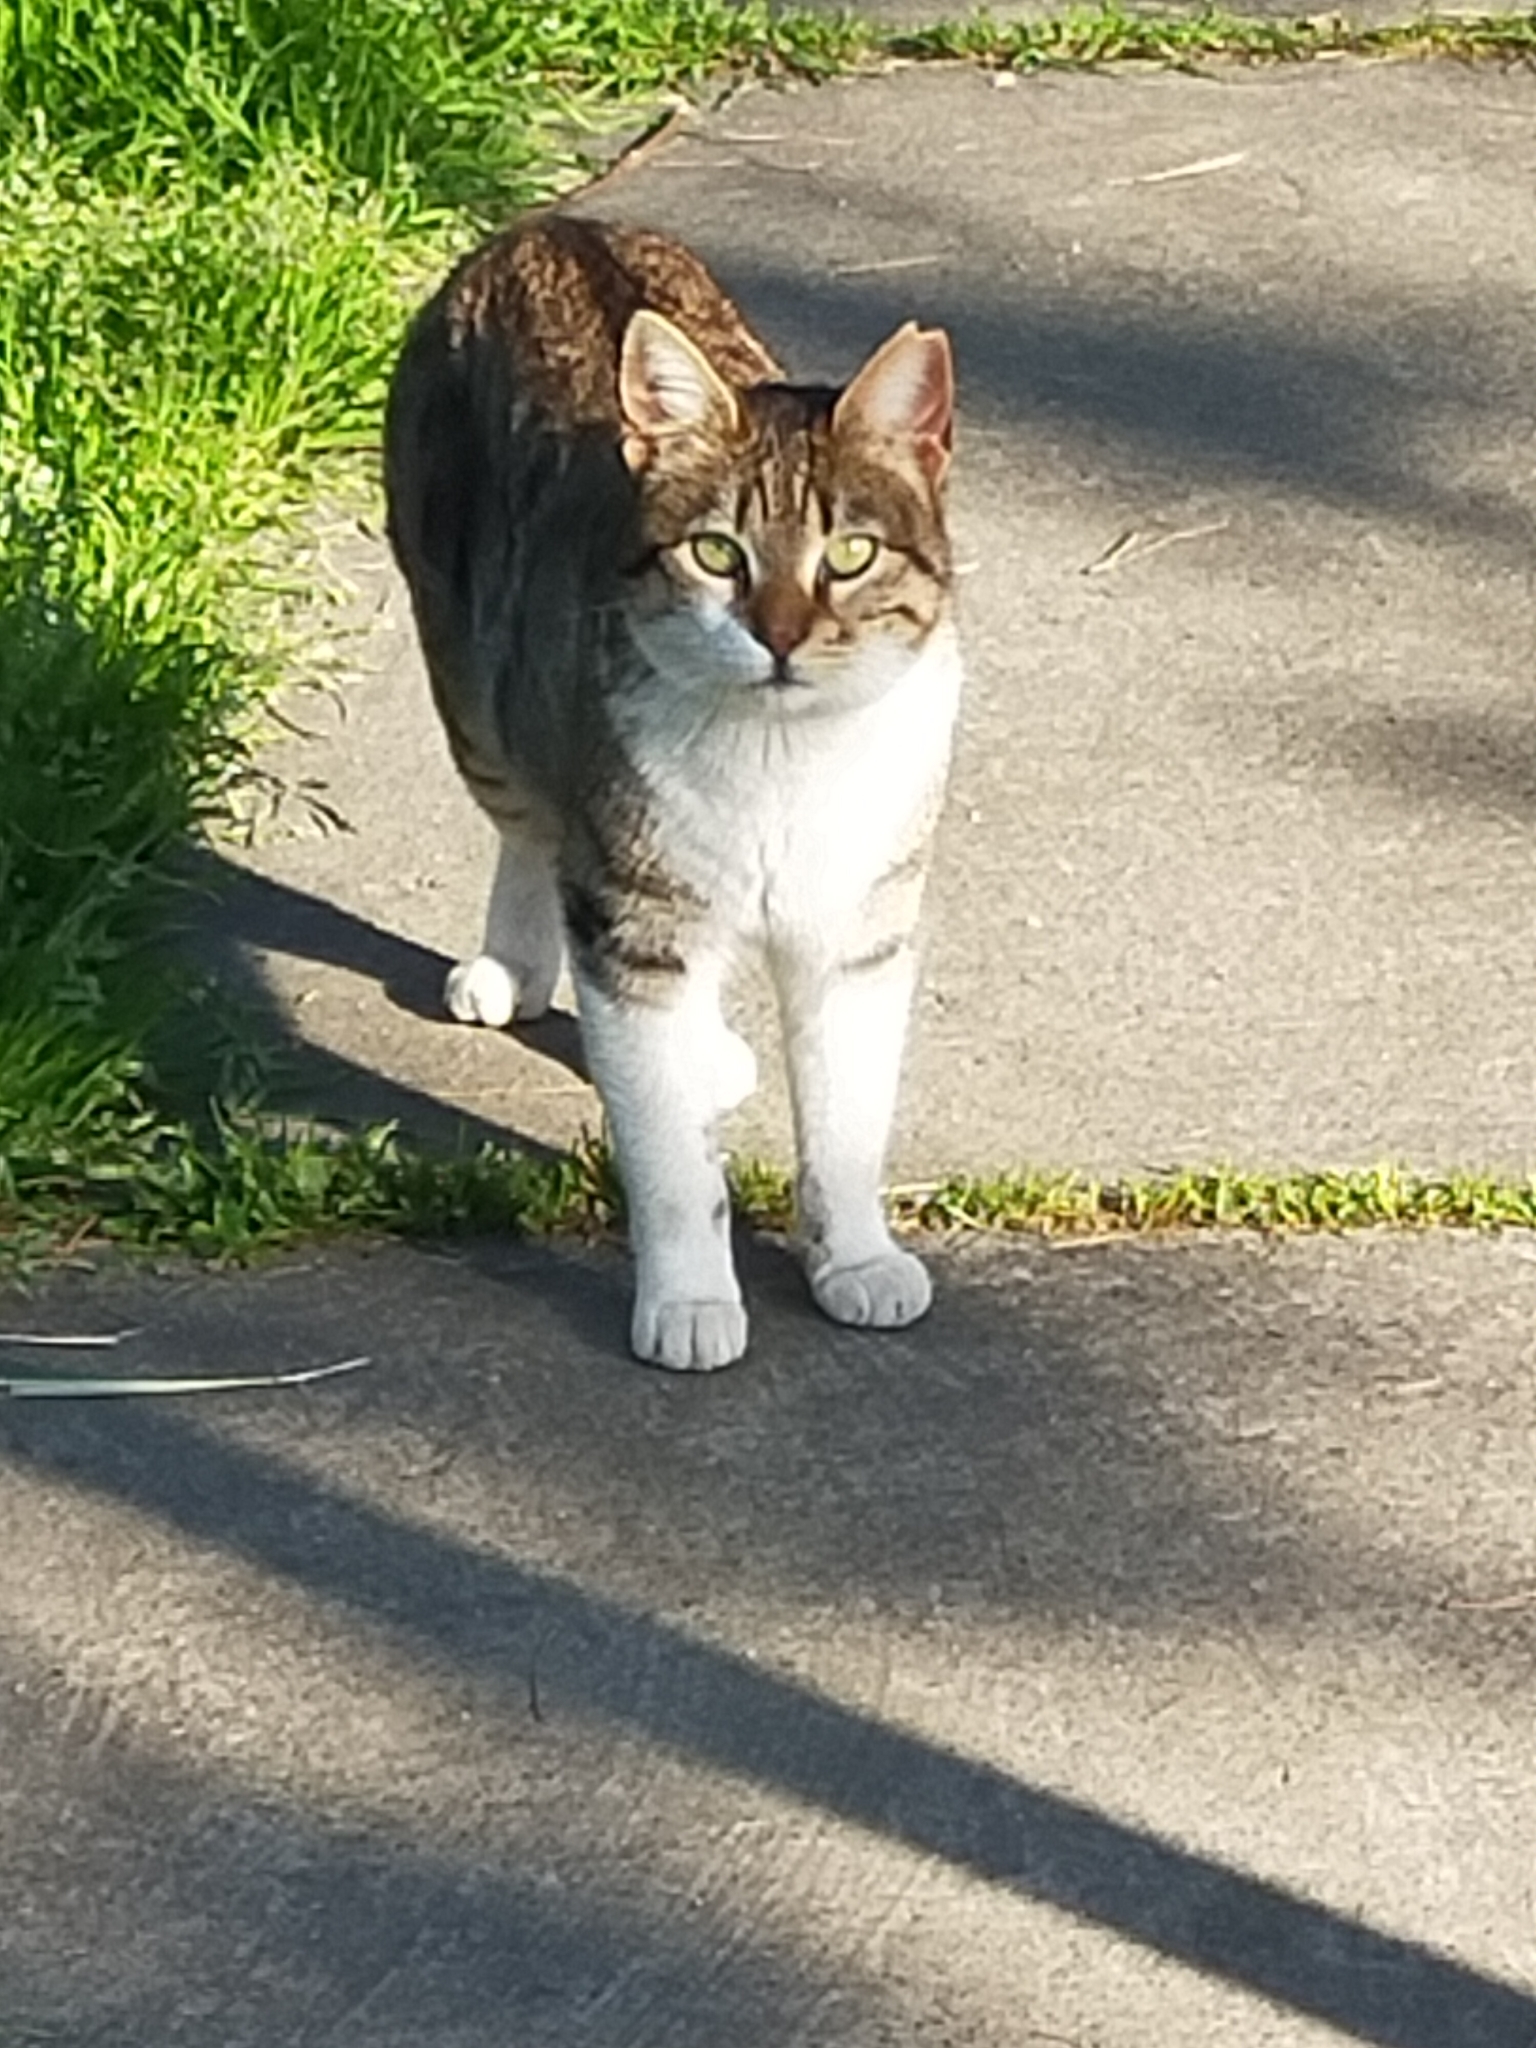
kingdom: Animalia
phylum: Chordata
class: Mammalia
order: Carnivora
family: Felidae
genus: Felis
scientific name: Felis catus
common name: Domestic cat
